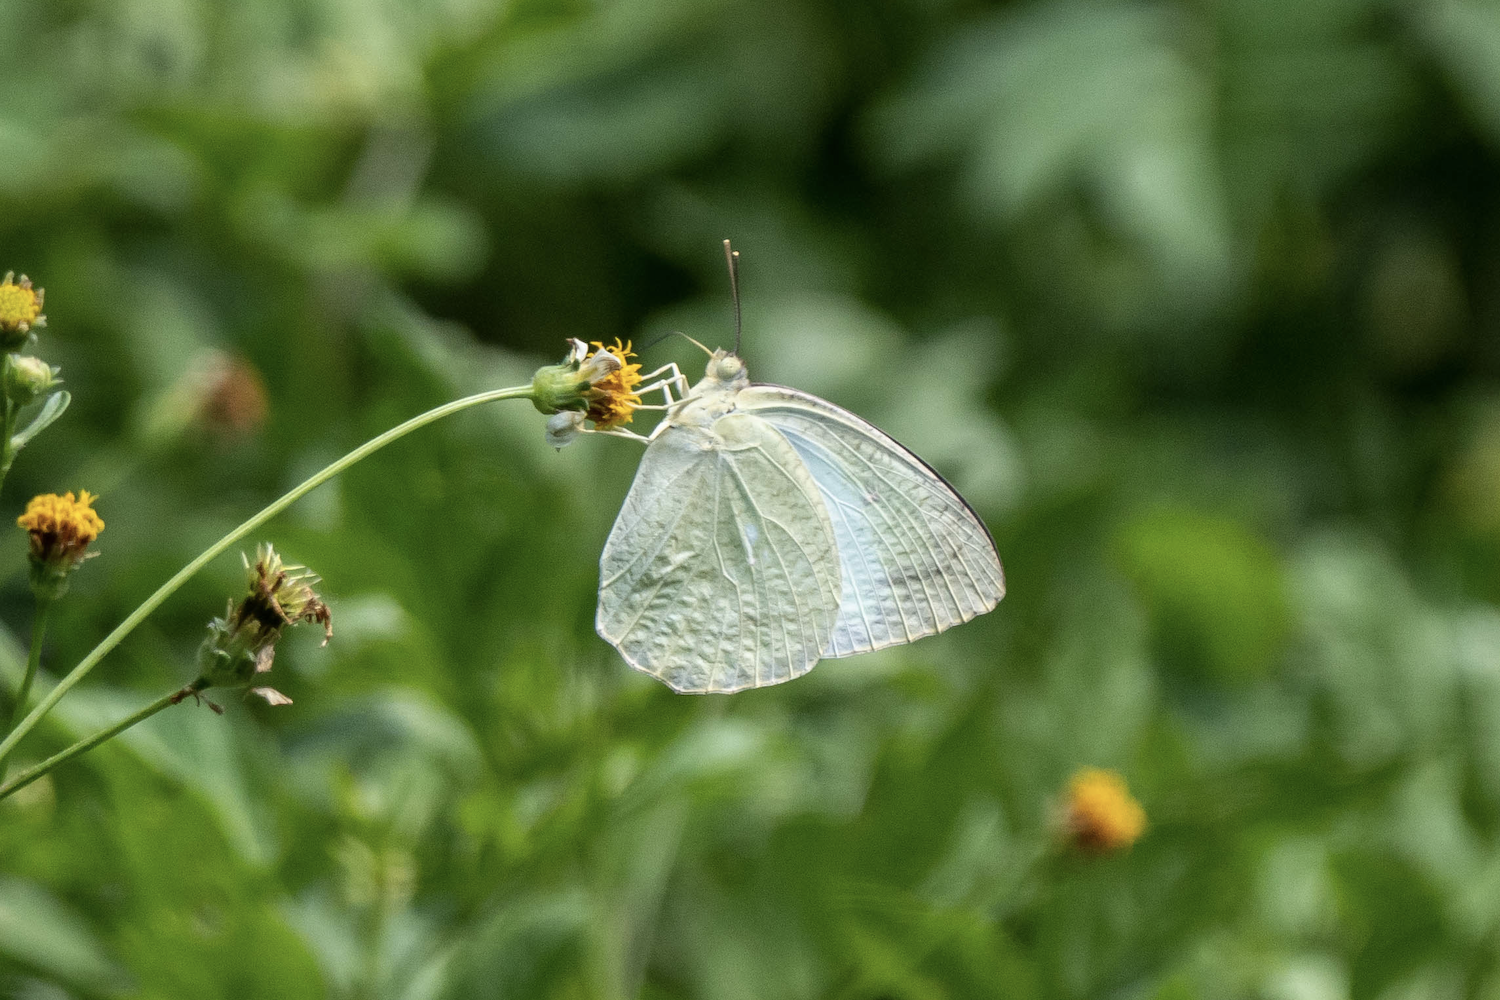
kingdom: Animalia
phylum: Arthropoda
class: Insecta
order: Lepidoptera
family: Pieridae
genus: Catopsilia
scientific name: Catopsilia pyranthe
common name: Mottled emigrant
